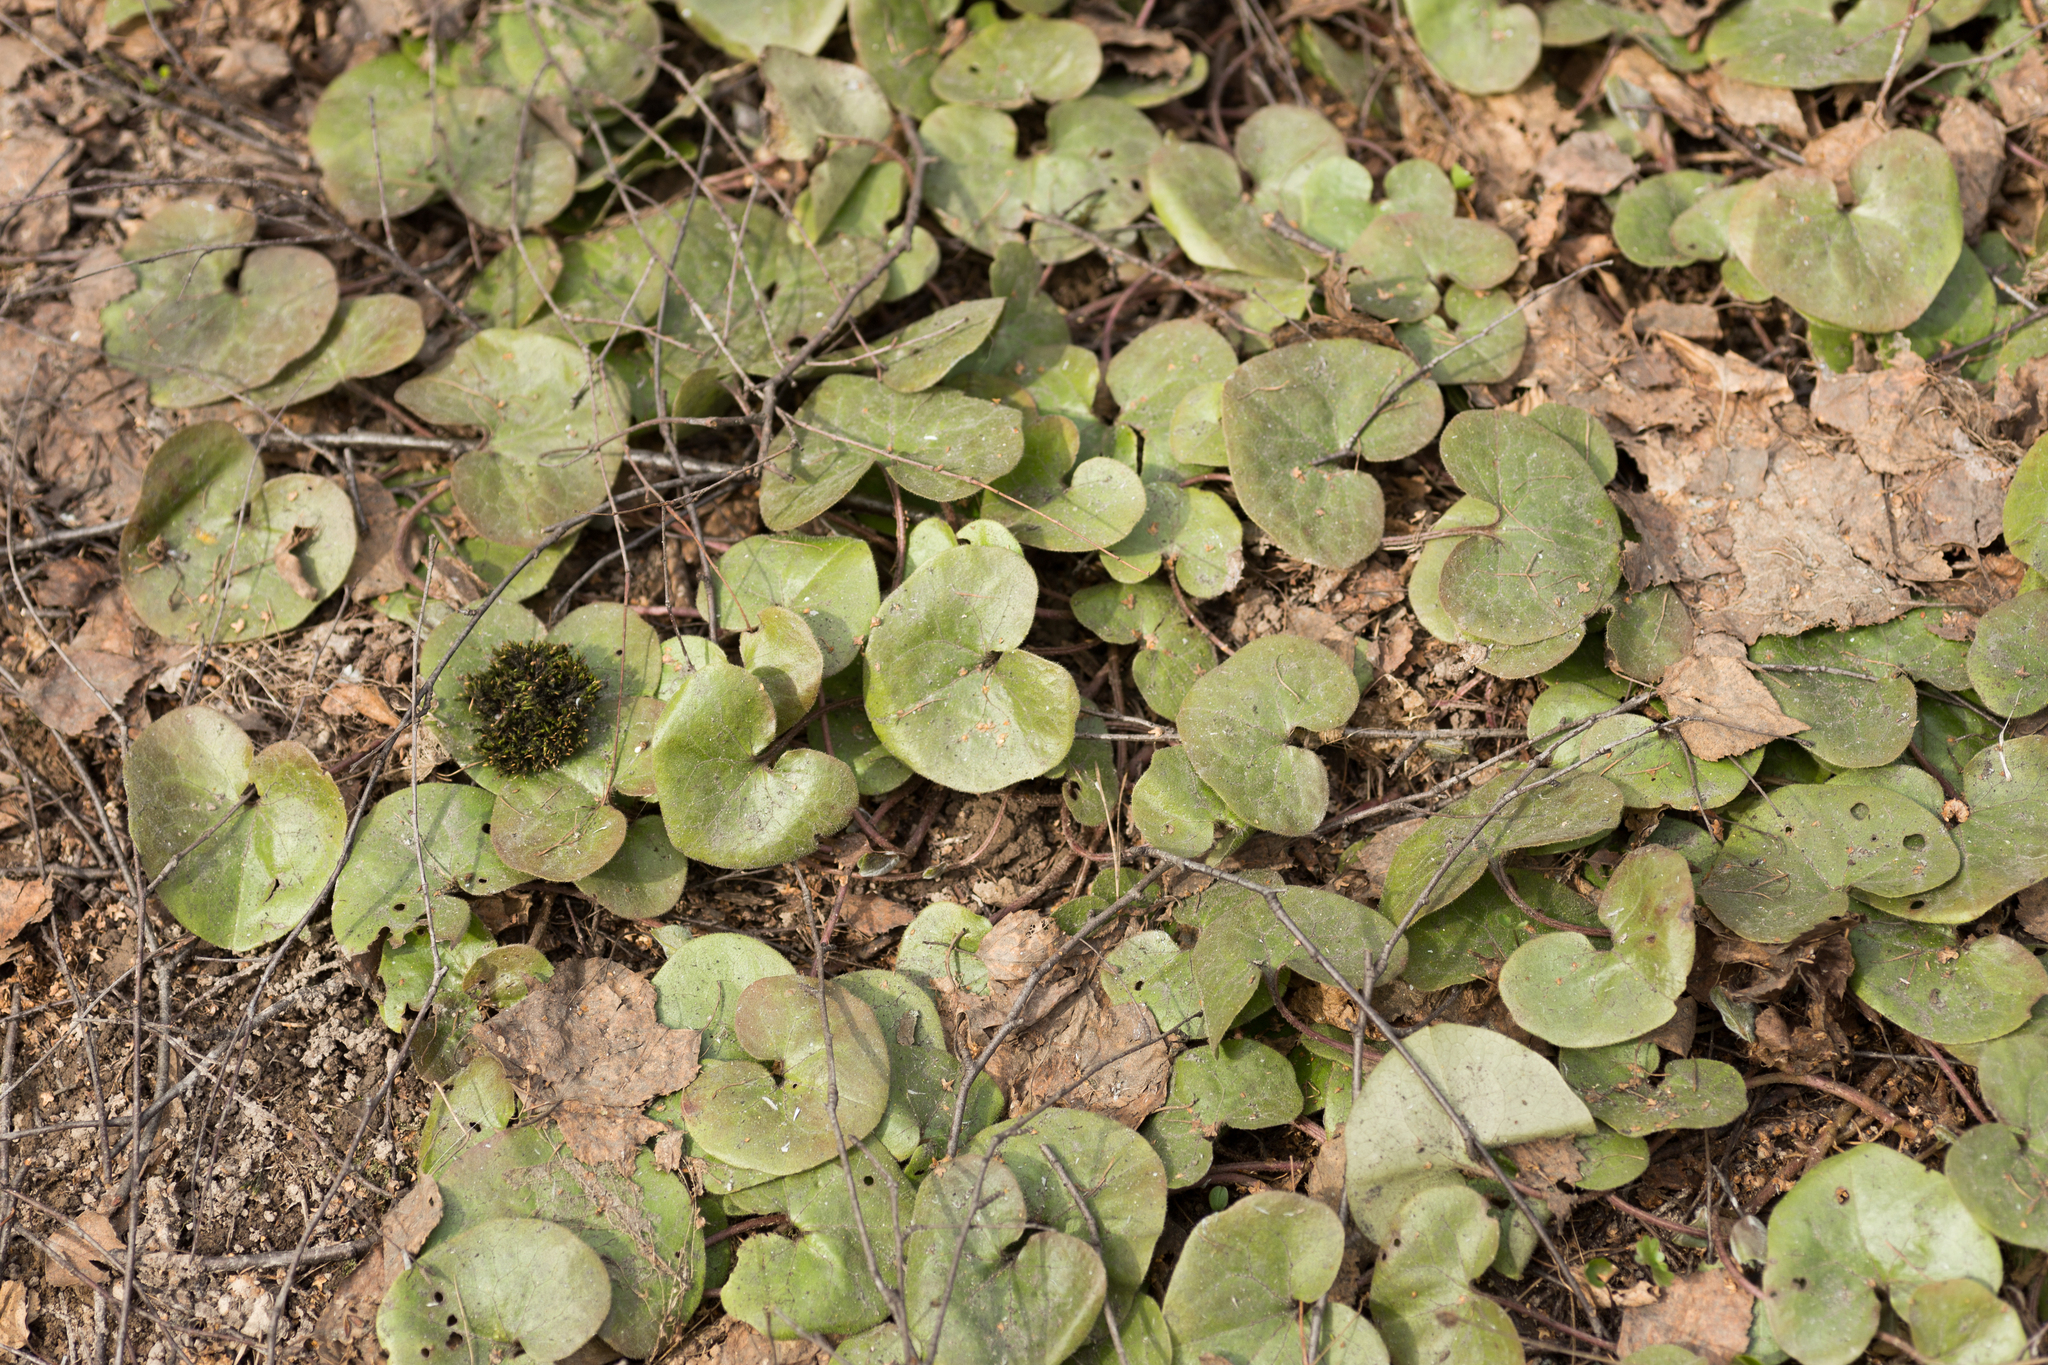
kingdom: Plantae
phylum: Tracheophyta
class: Magnoliopsida
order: Piperales
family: Aristolochiaceae
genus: Asarum
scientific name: Asarum europaeum
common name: Asarabacca
